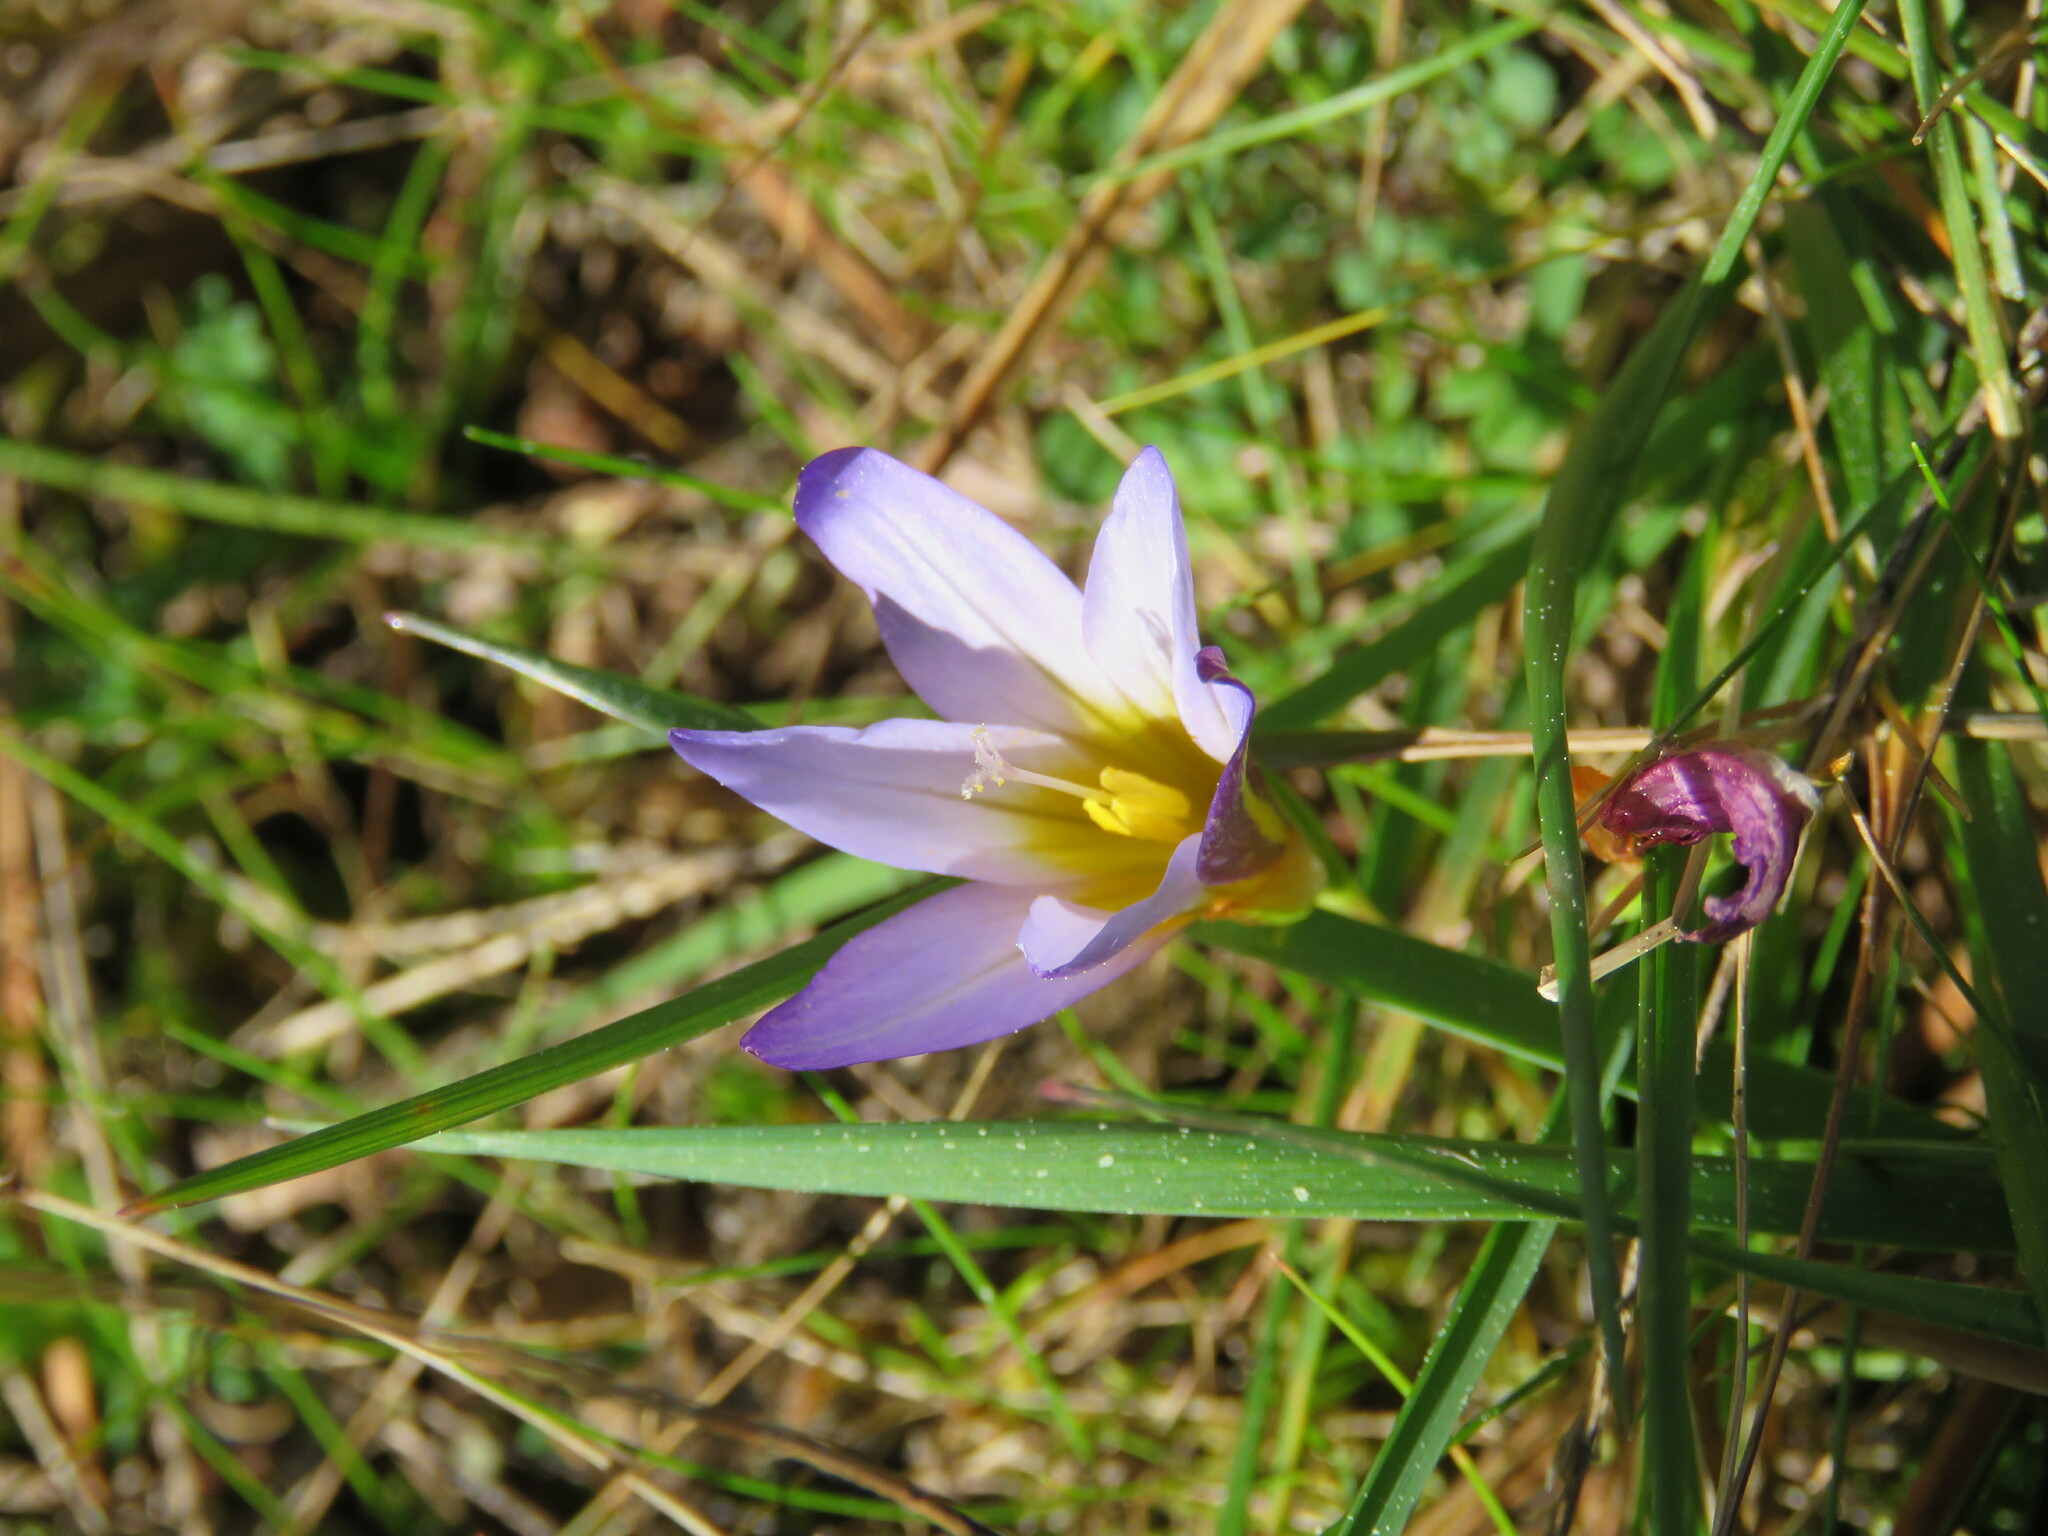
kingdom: Plantae
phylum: Tracheophyta
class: Liliopsida
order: Asparagales
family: Iridaceae
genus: Romulea
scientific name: Romulea bulbocodium
